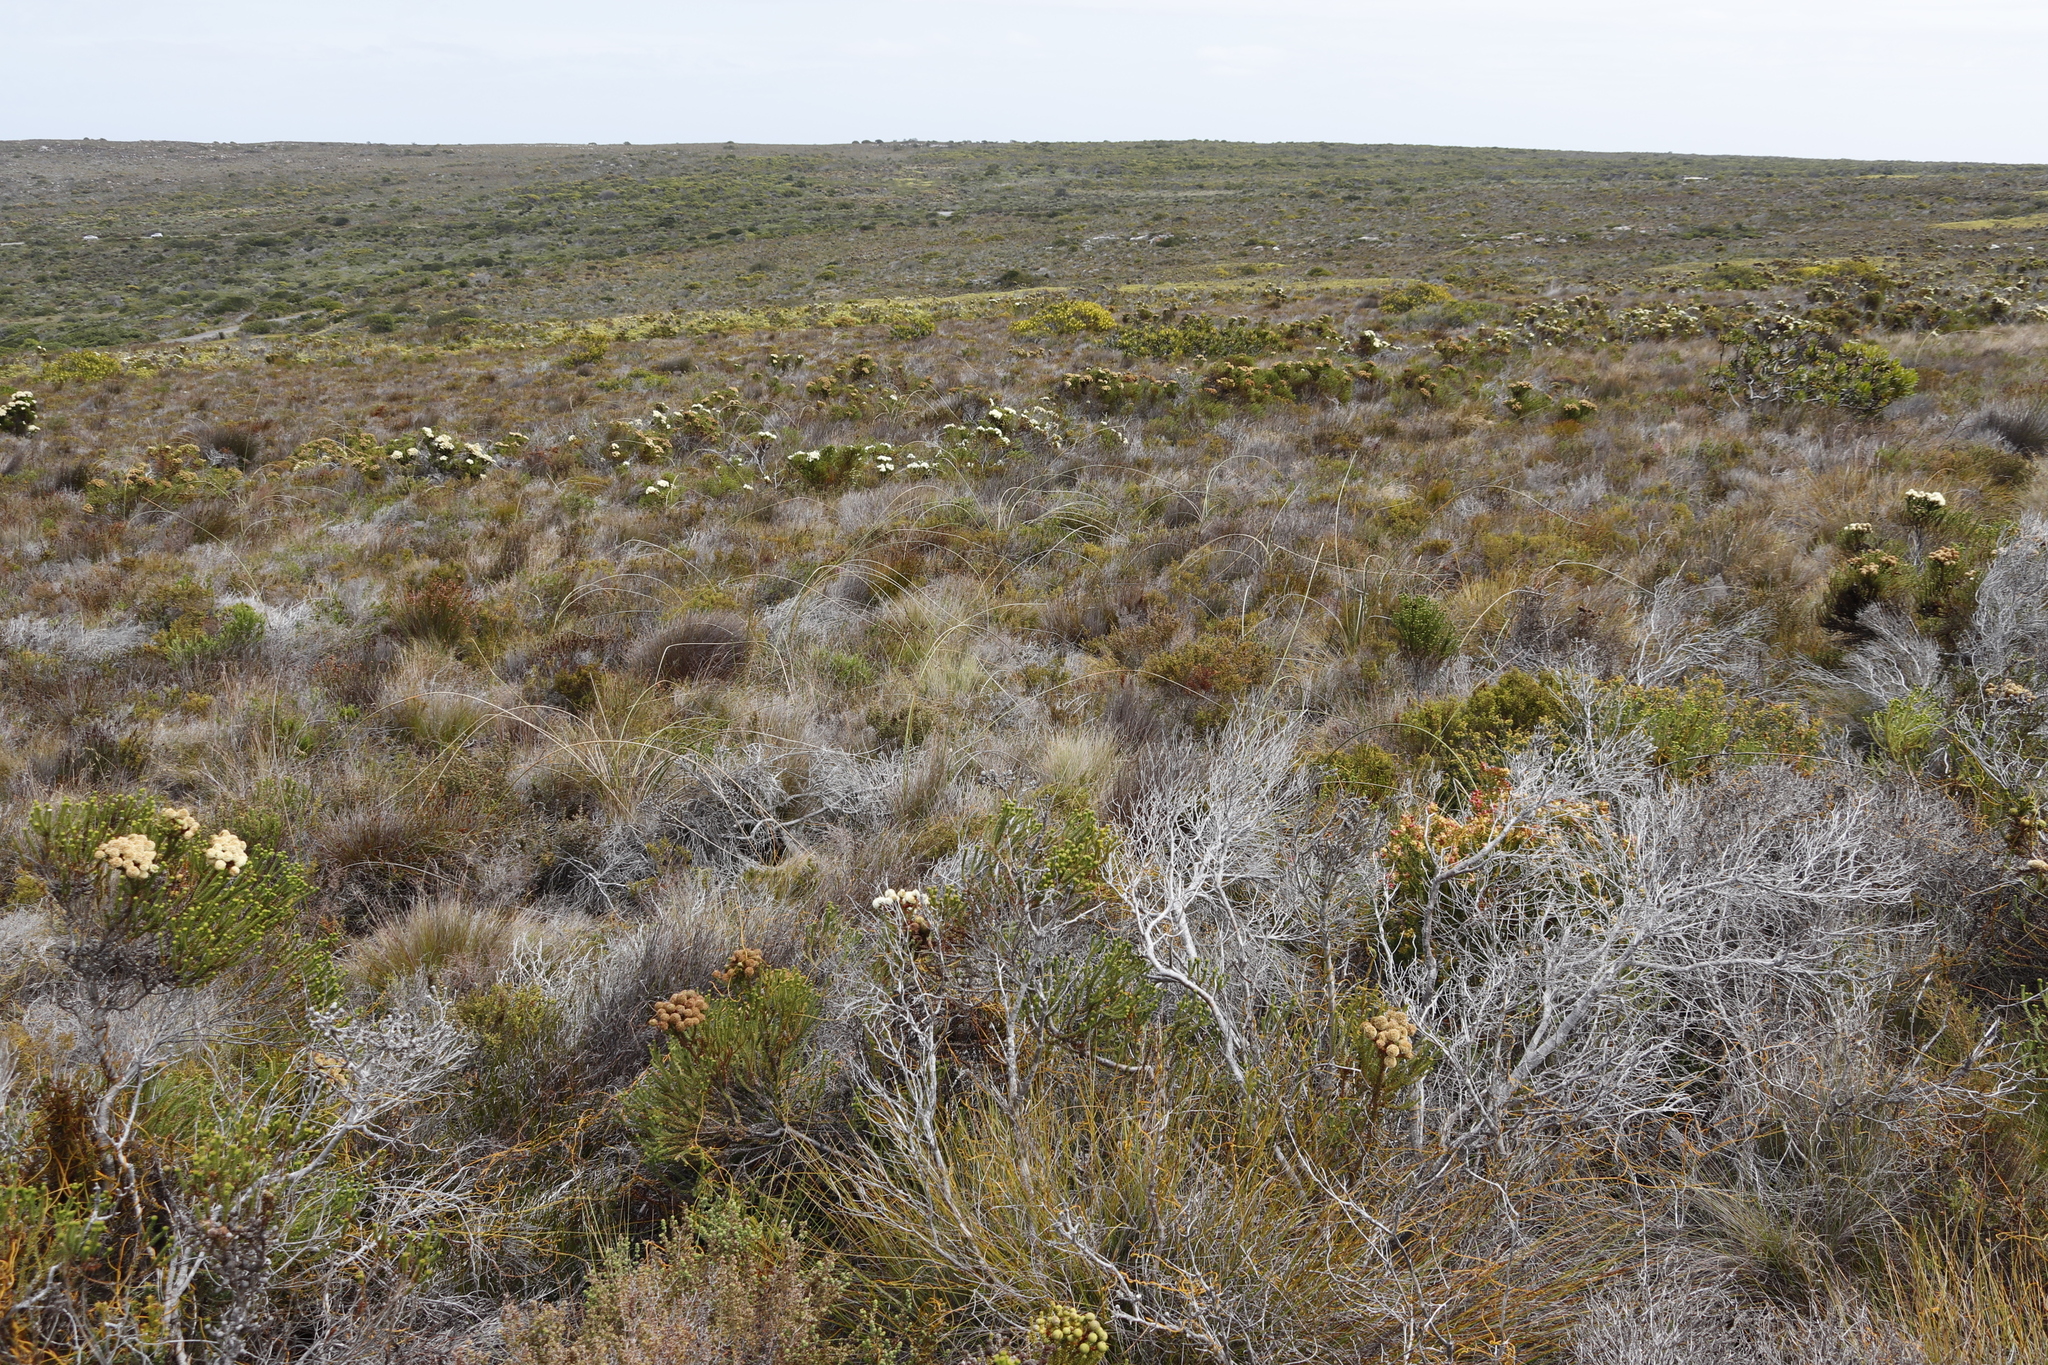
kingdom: Plantae
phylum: Tracheophyta
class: Liliopsida
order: Asparagales
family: Iridaceae
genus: Bobartia
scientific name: Bobartia indica
